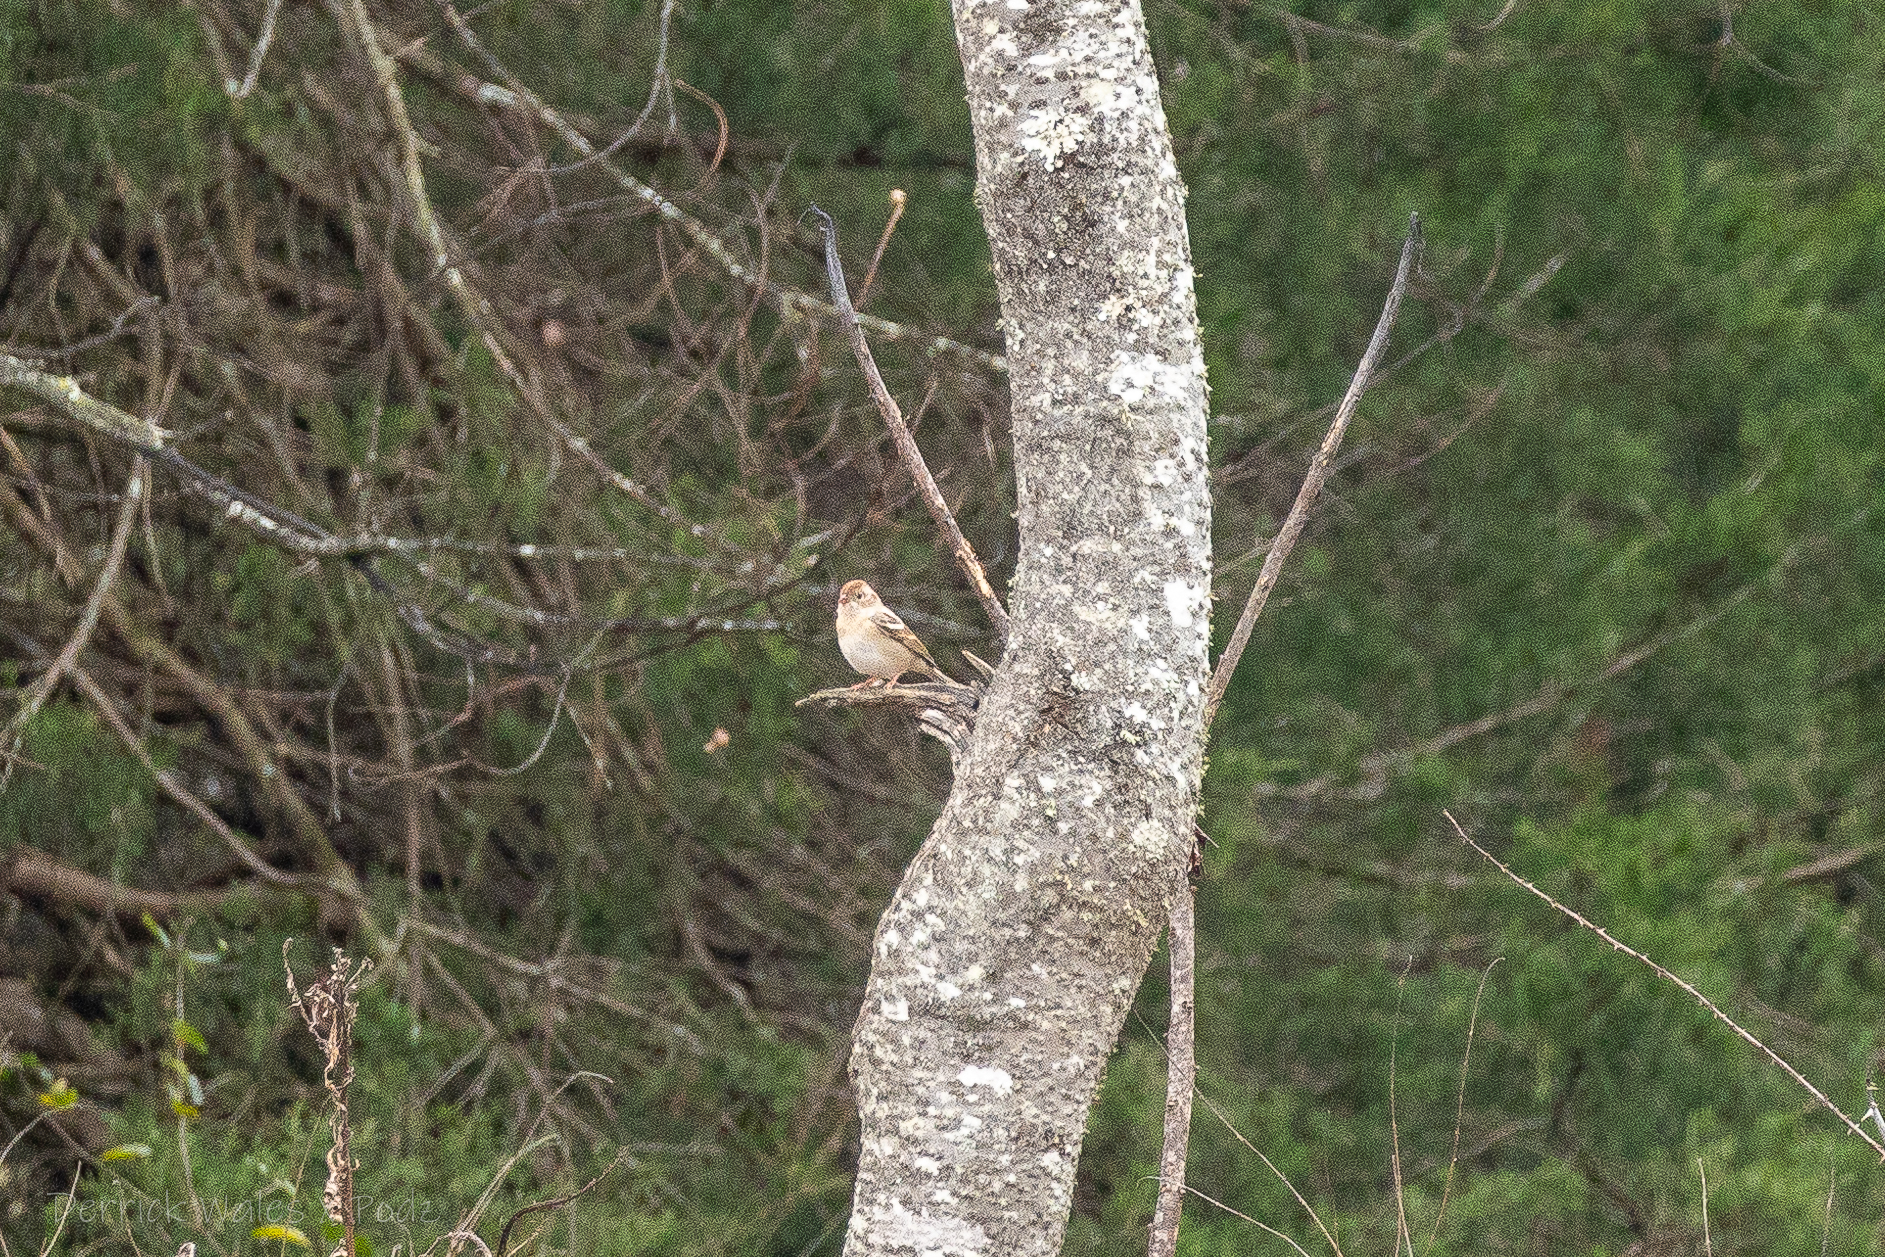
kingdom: Animalia
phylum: Chordata
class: Aves
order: Passeriformes
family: Passerellidae
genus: Spizella
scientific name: Spizella pusilla
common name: Field sparrow
